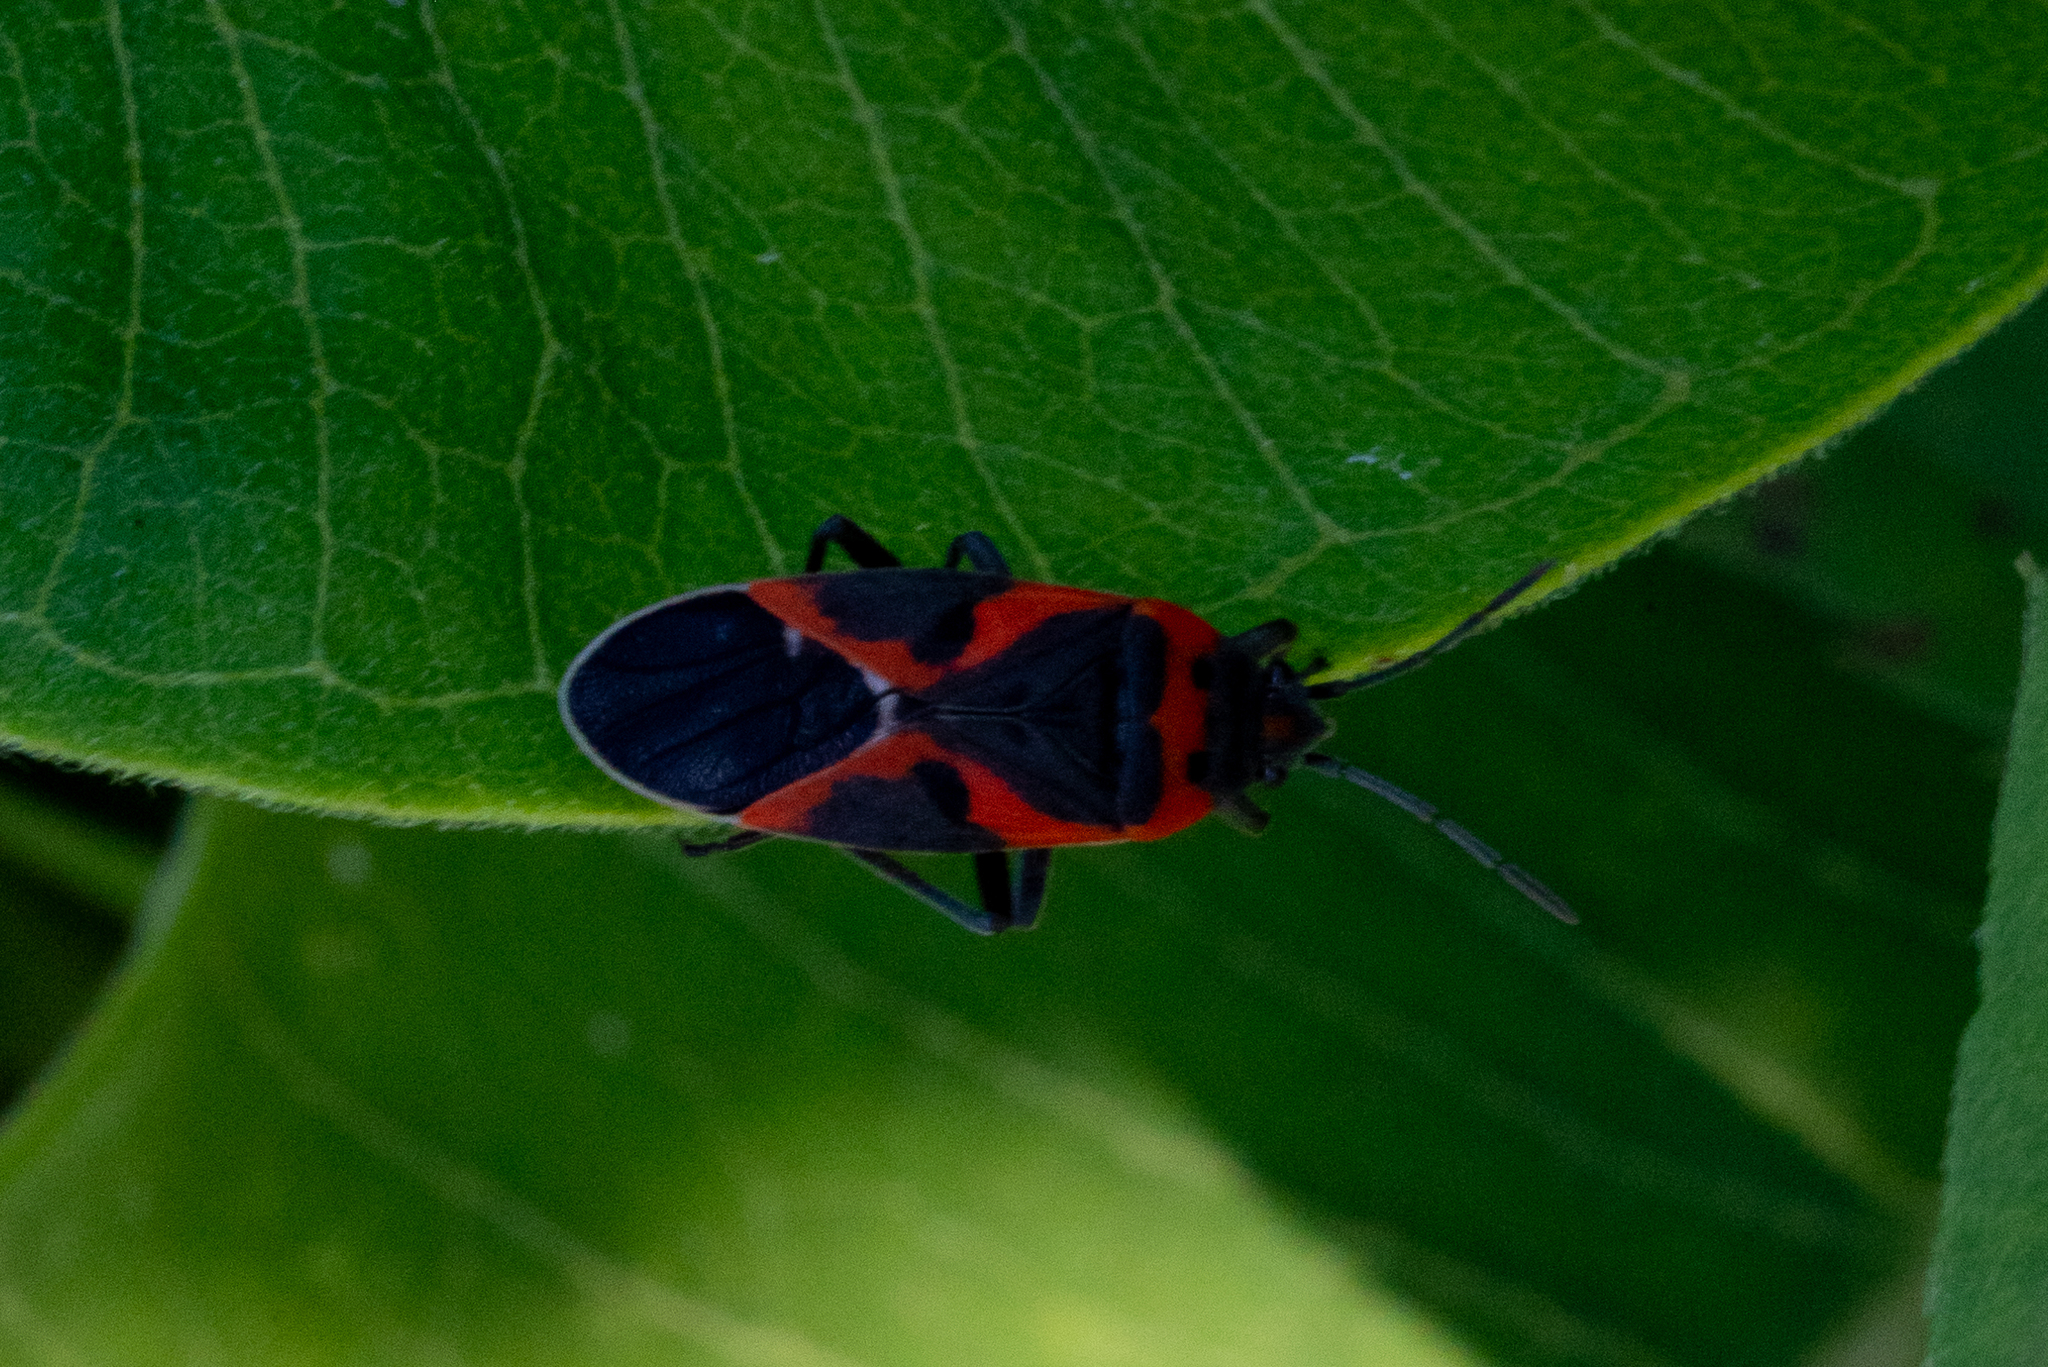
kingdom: Animalia
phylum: Arthropoda
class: Insecta
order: Hemiptera
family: Lygaeidae
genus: Lygaeus
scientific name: Lygaeus kalmii
